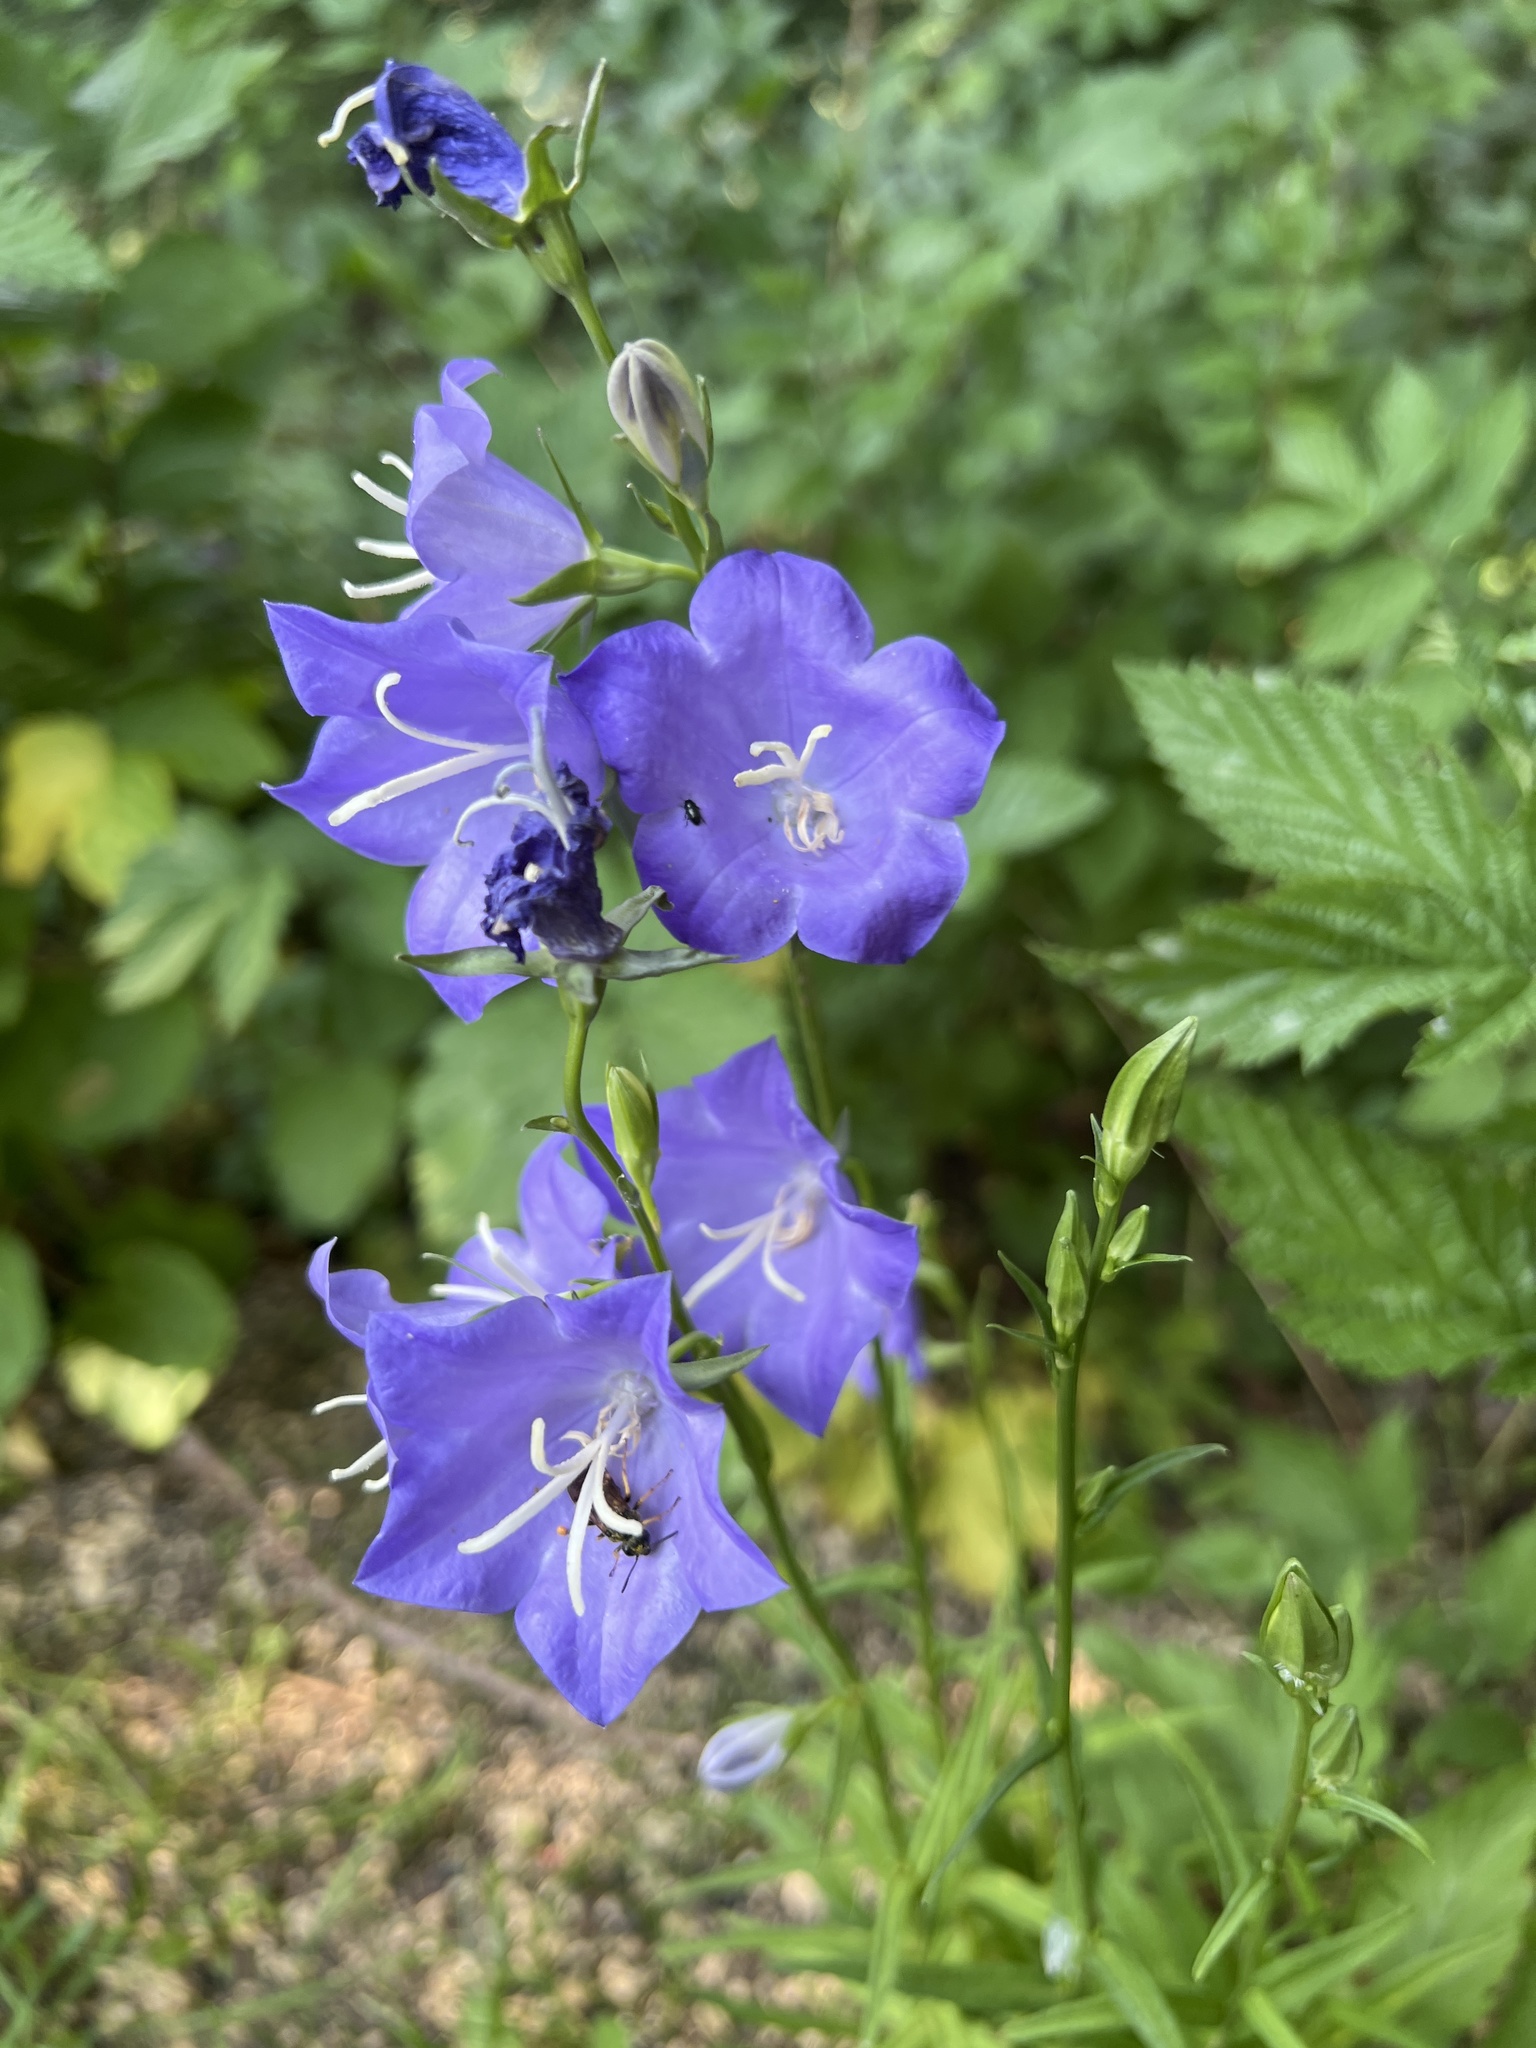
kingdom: Plantae
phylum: Tracheophyta
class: Magnoliopsida
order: Asterales
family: Campanulaceae
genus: Campanula
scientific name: Campanula persicifolia
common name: Peach-leaved bellflower
